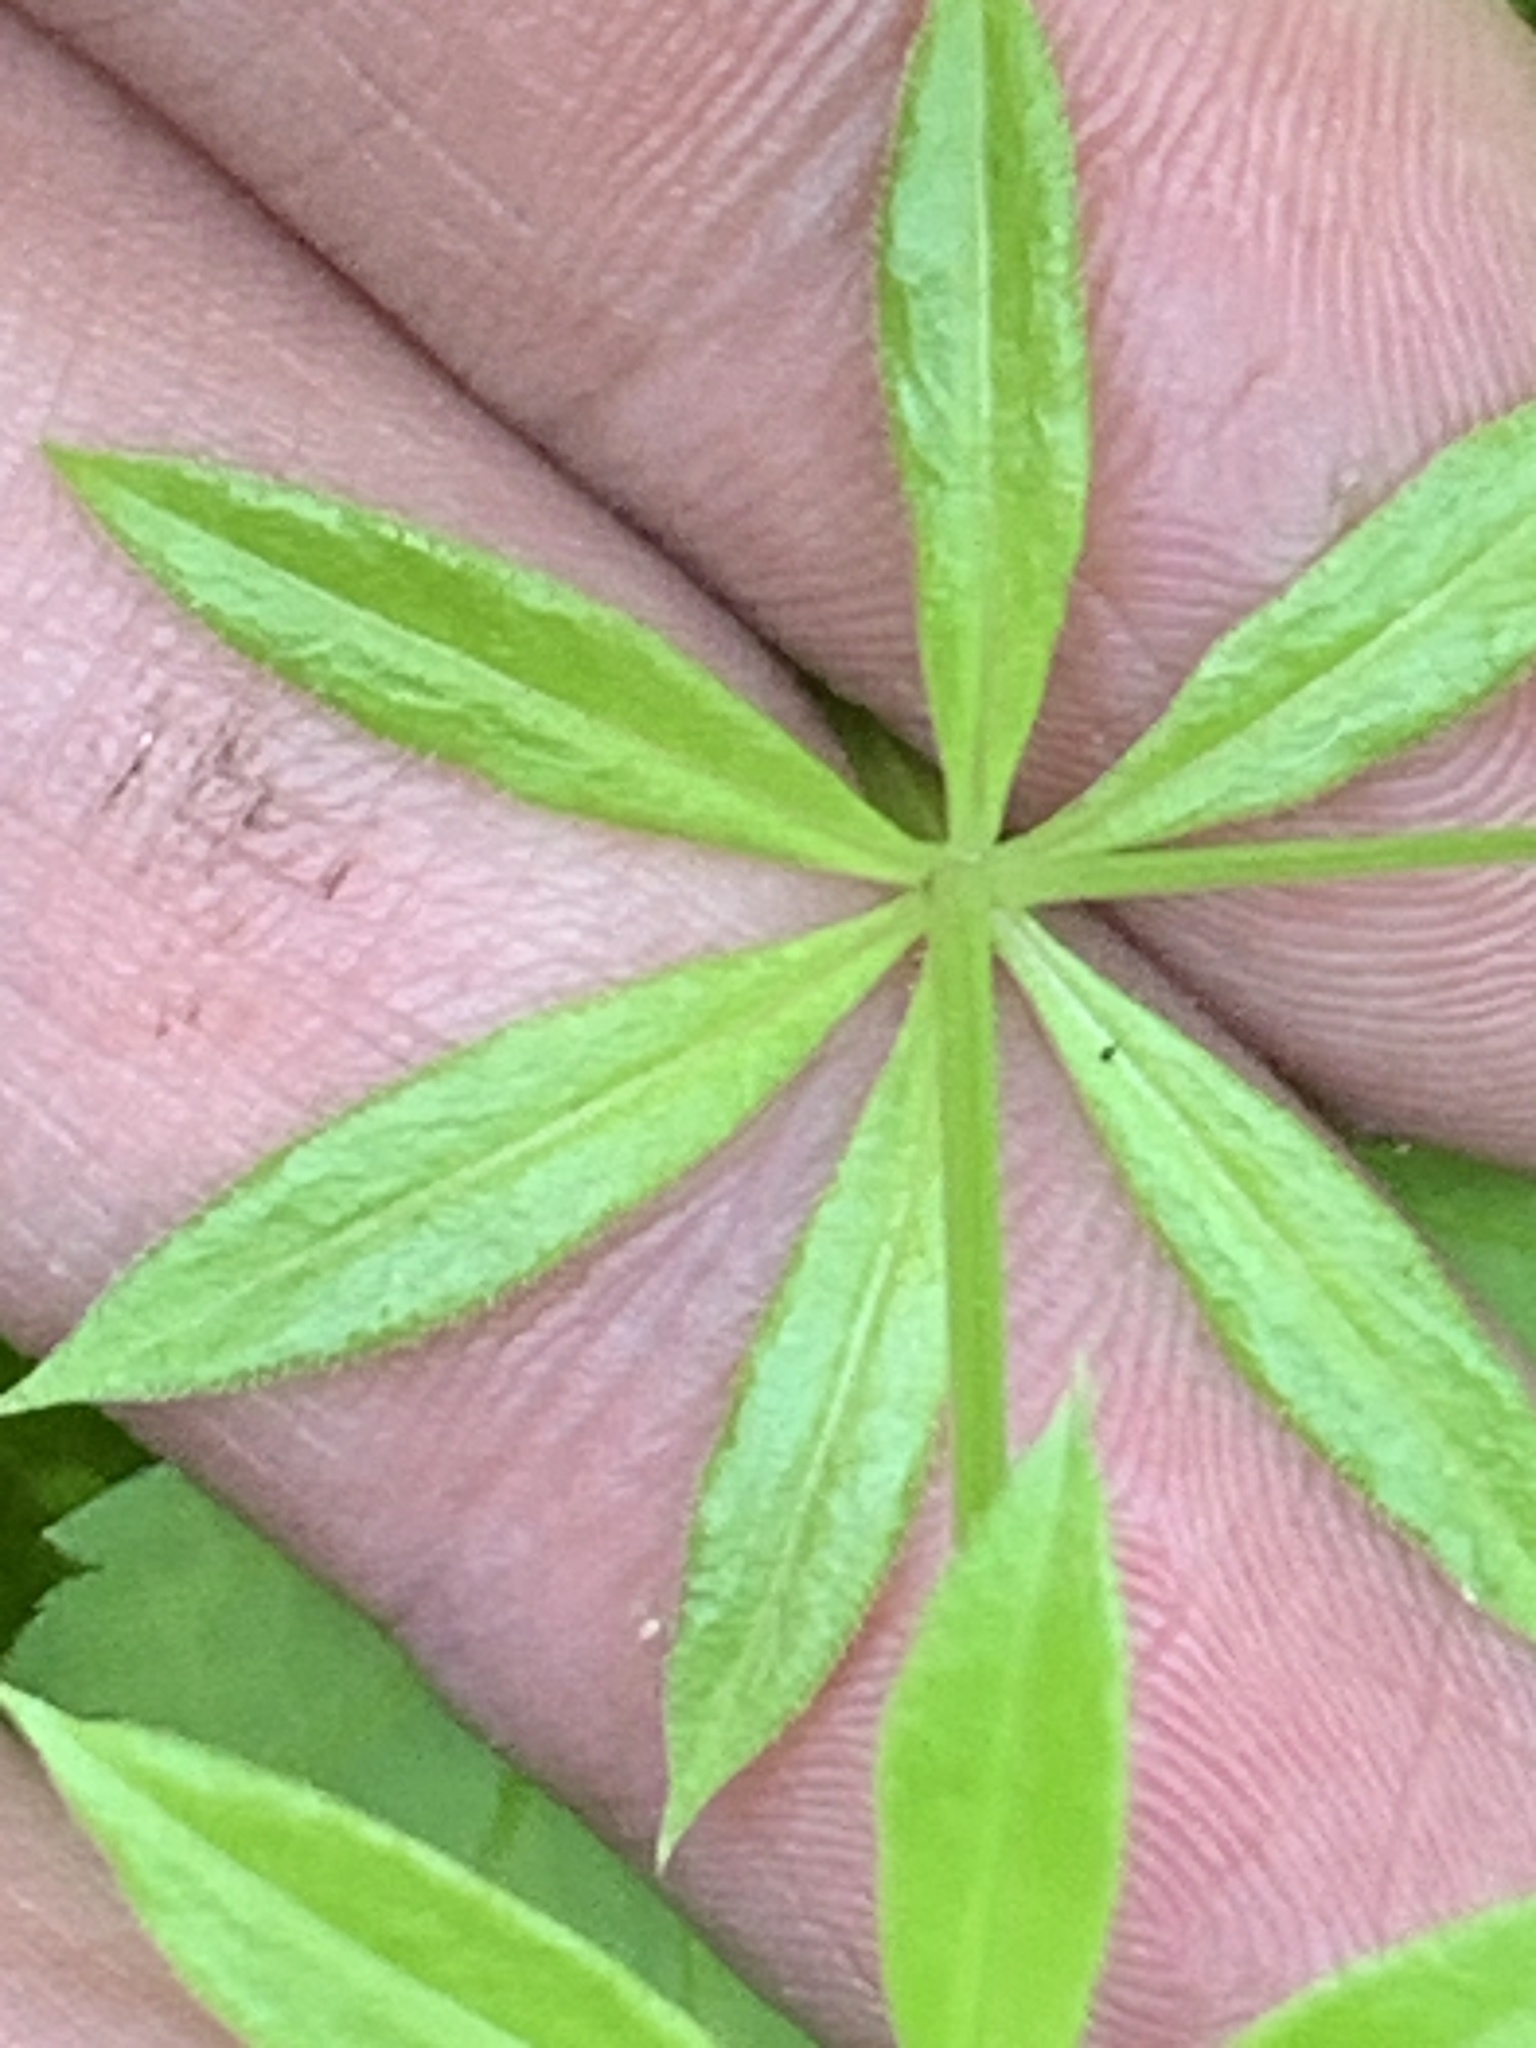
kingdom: Plantae
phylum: Tracheophyta
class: Magnoliopsida
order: Gentianales
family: Rubiaceae
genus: Galium
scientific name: Galium triflorum
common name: Fragrant bedstraw
